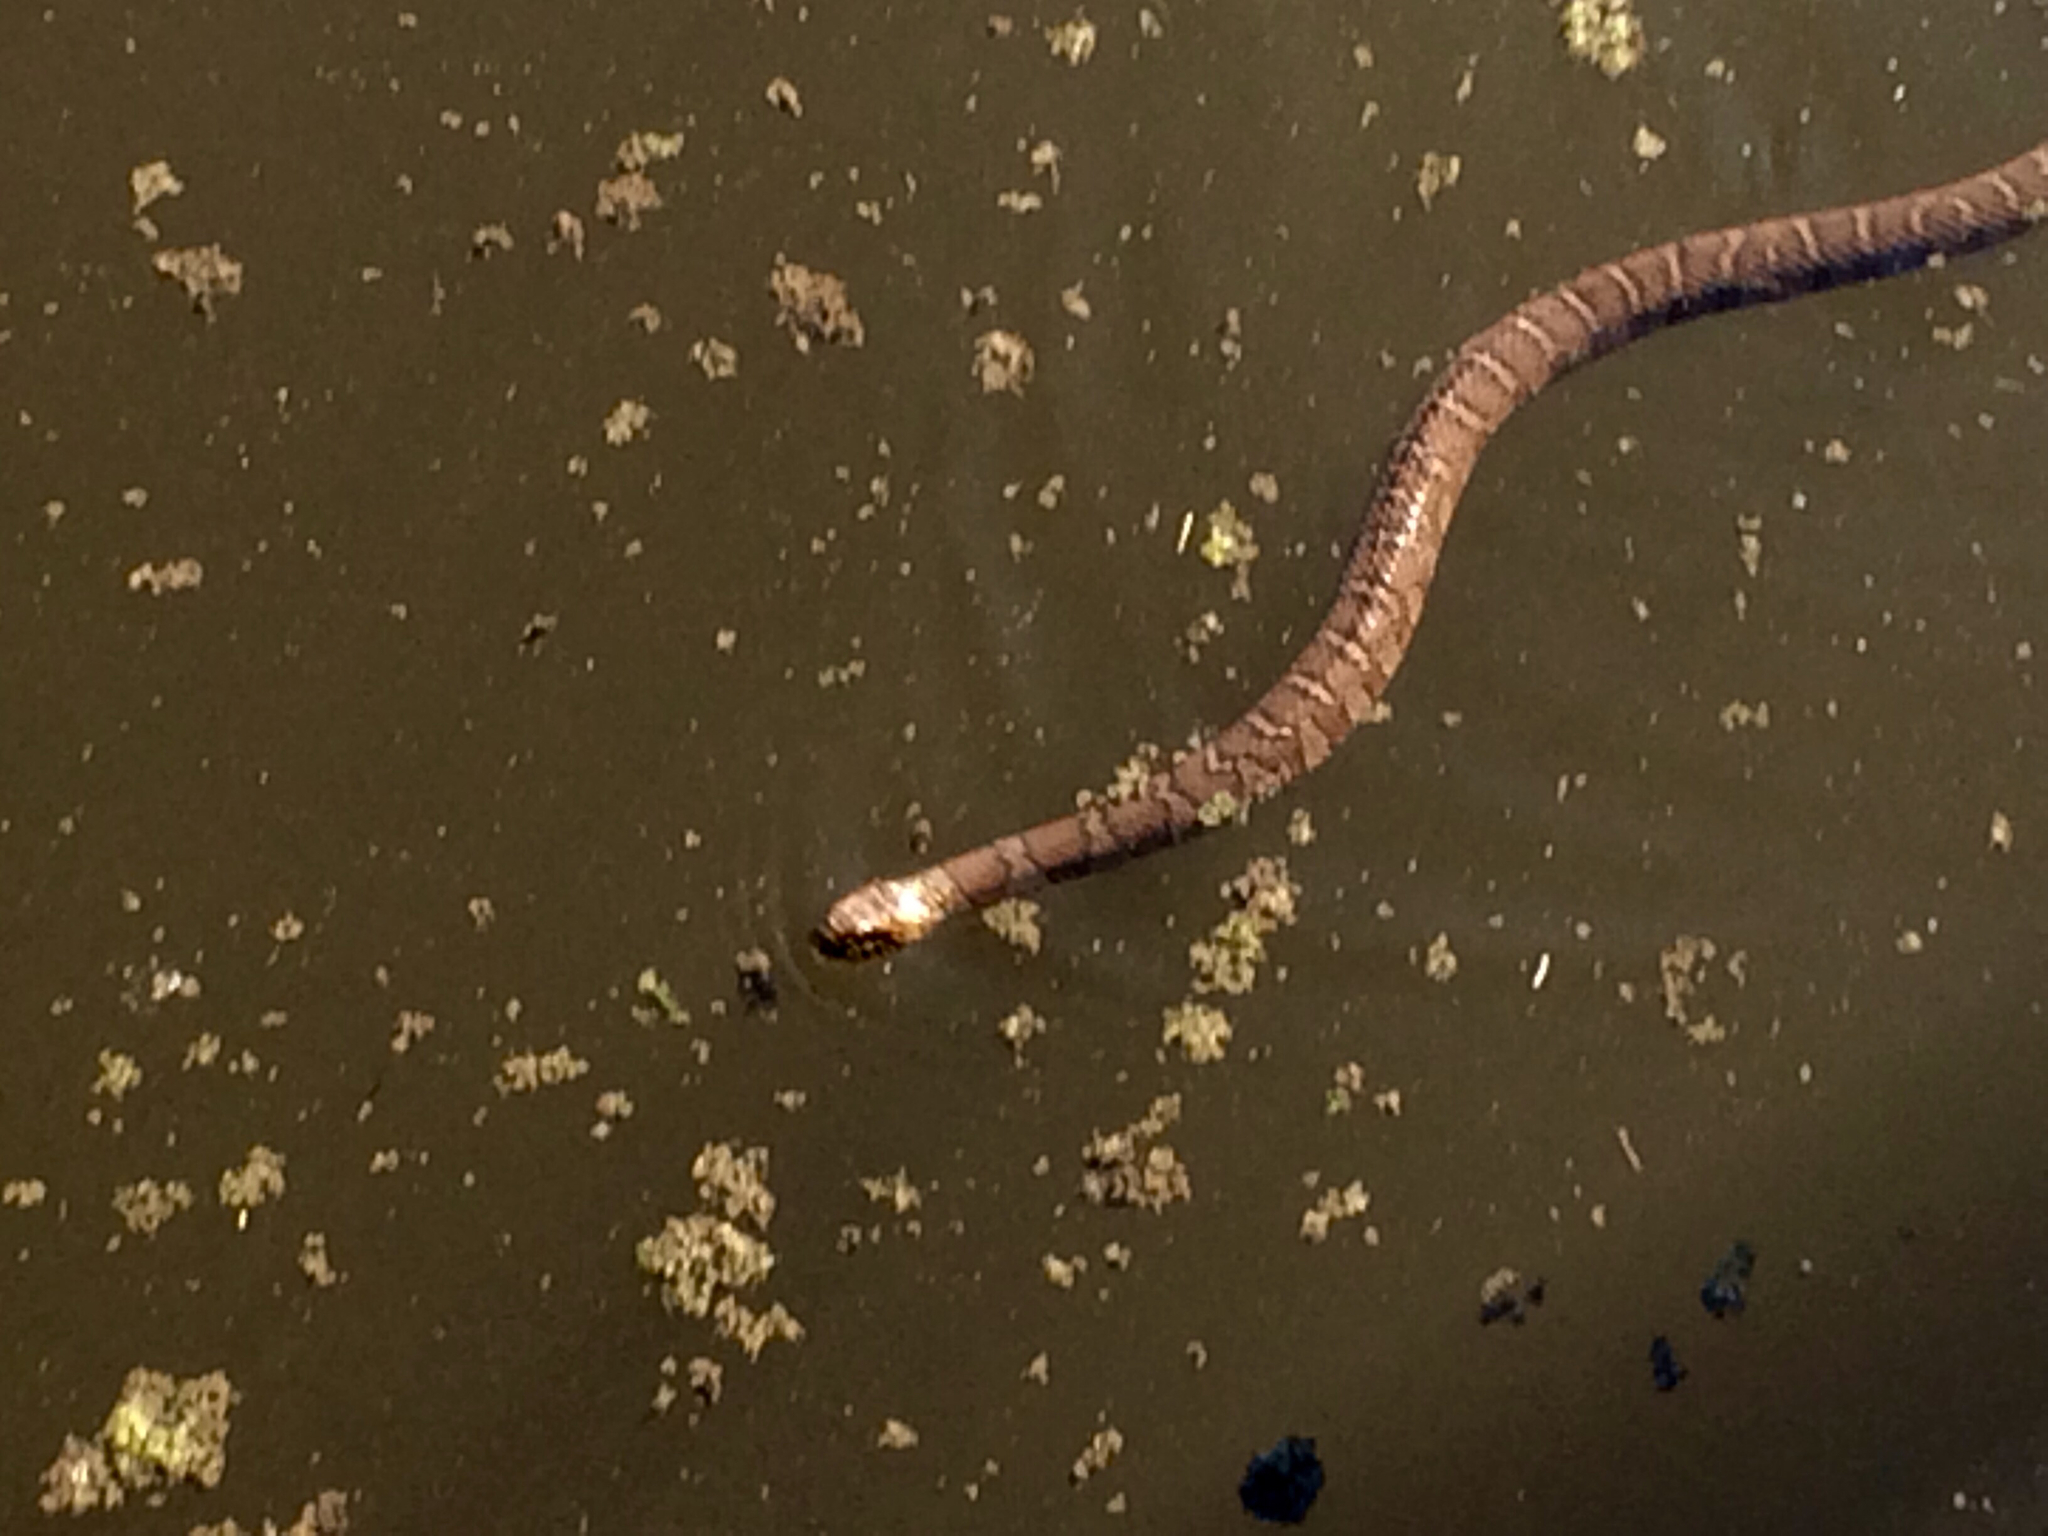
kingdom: Animalia
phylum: Chordata
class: Squamata
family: Colubridae
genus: Nerodia
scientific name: Nerodia sipedon
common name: Northern water snake
